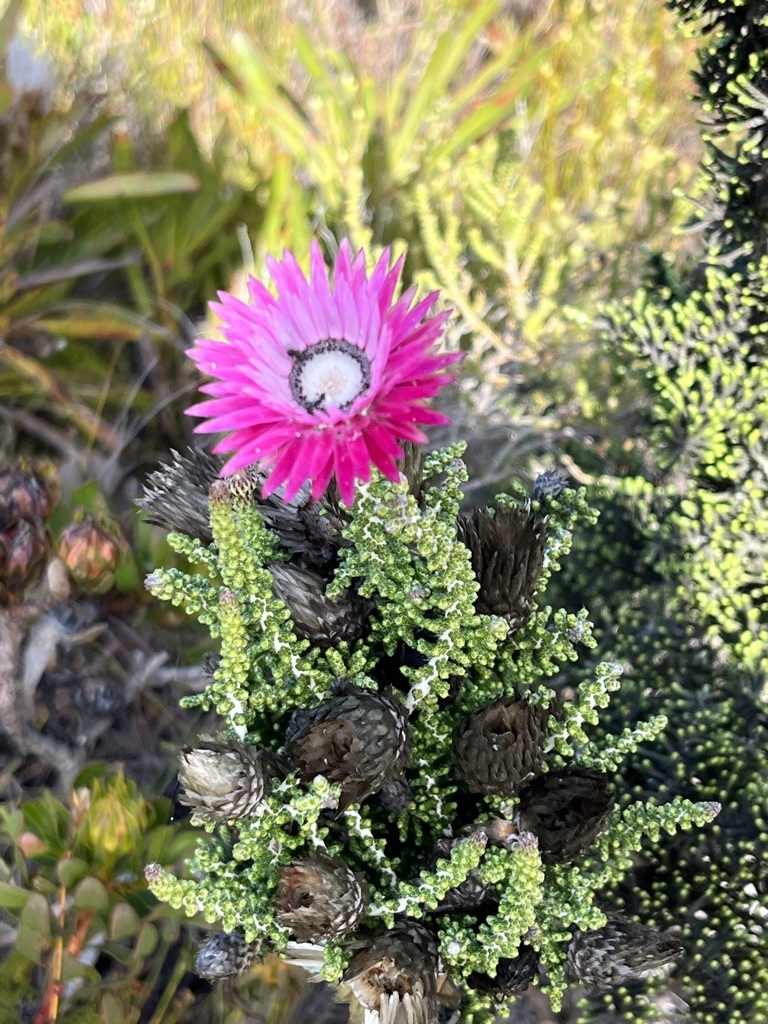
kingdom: Plantae
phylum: Tracheophyta
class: Magnoliopsida
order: Asterales
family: Asteraceae
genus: Phaenocoma
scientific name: Phaenocoma prolifera
